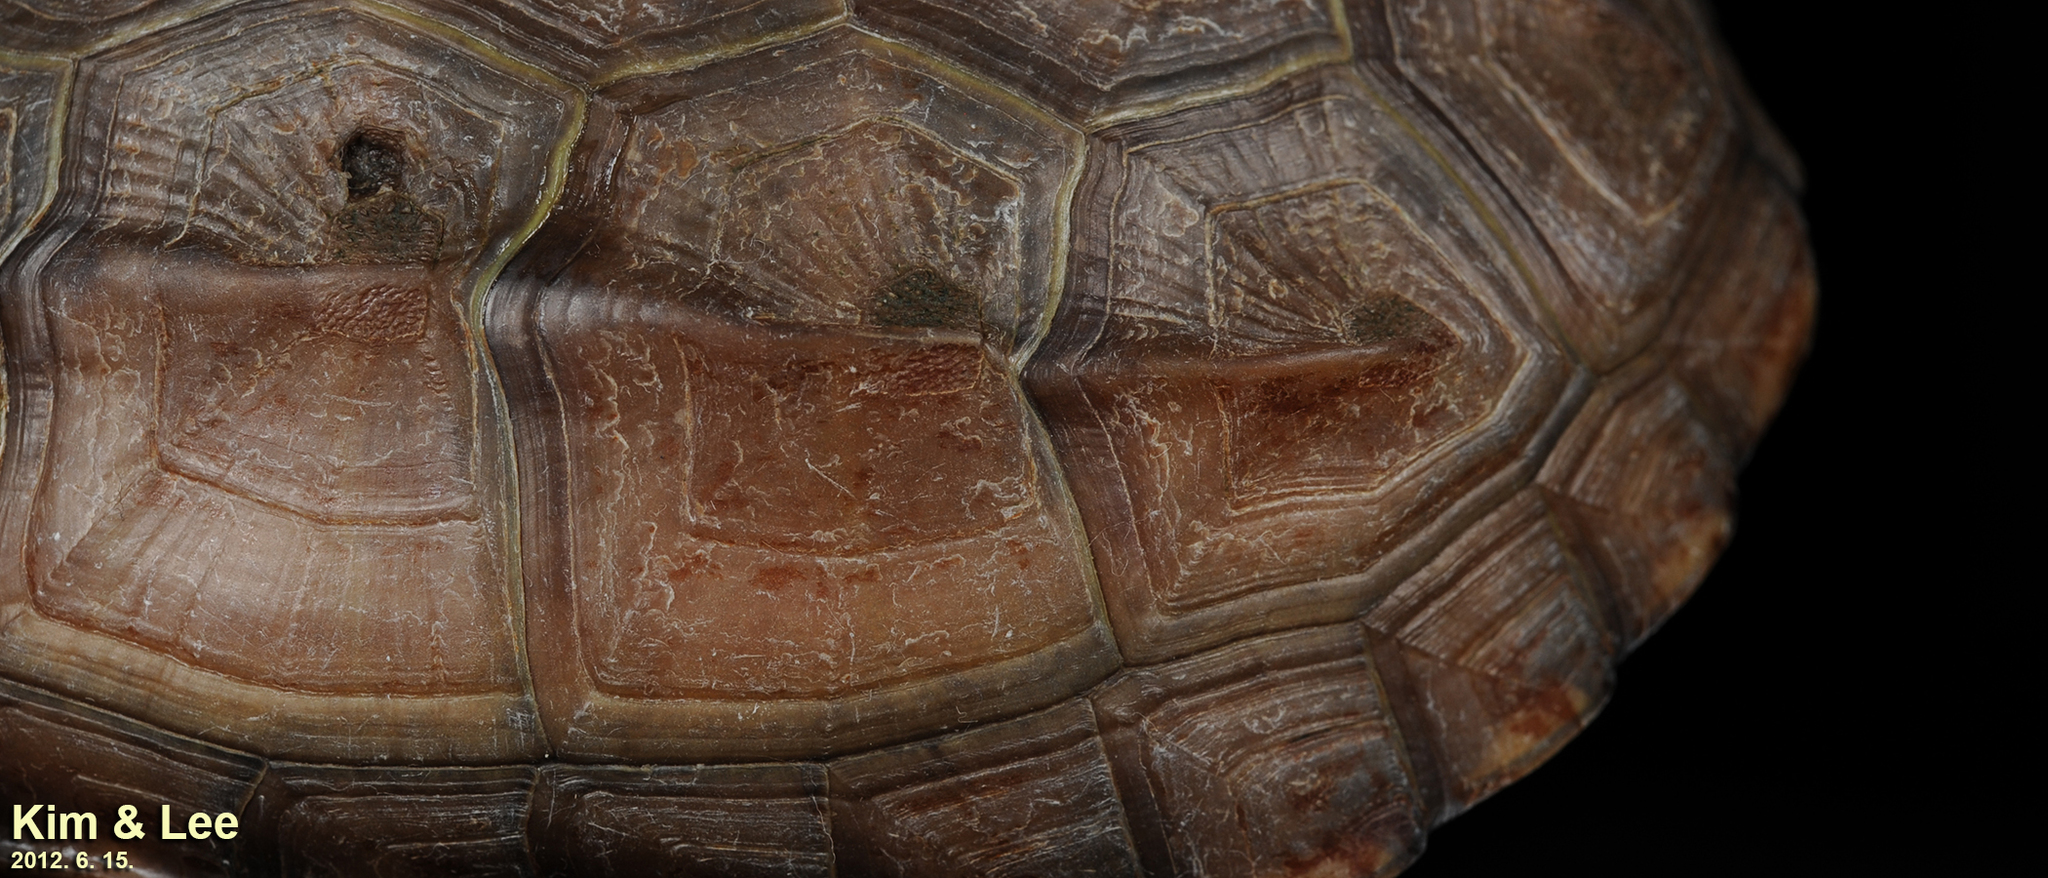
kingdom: Animalia
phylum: Chordata
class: Testudines
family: Geoemydidae
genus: Mauremys
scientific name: Mauremys reevesii
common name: Chinese pond turtle
